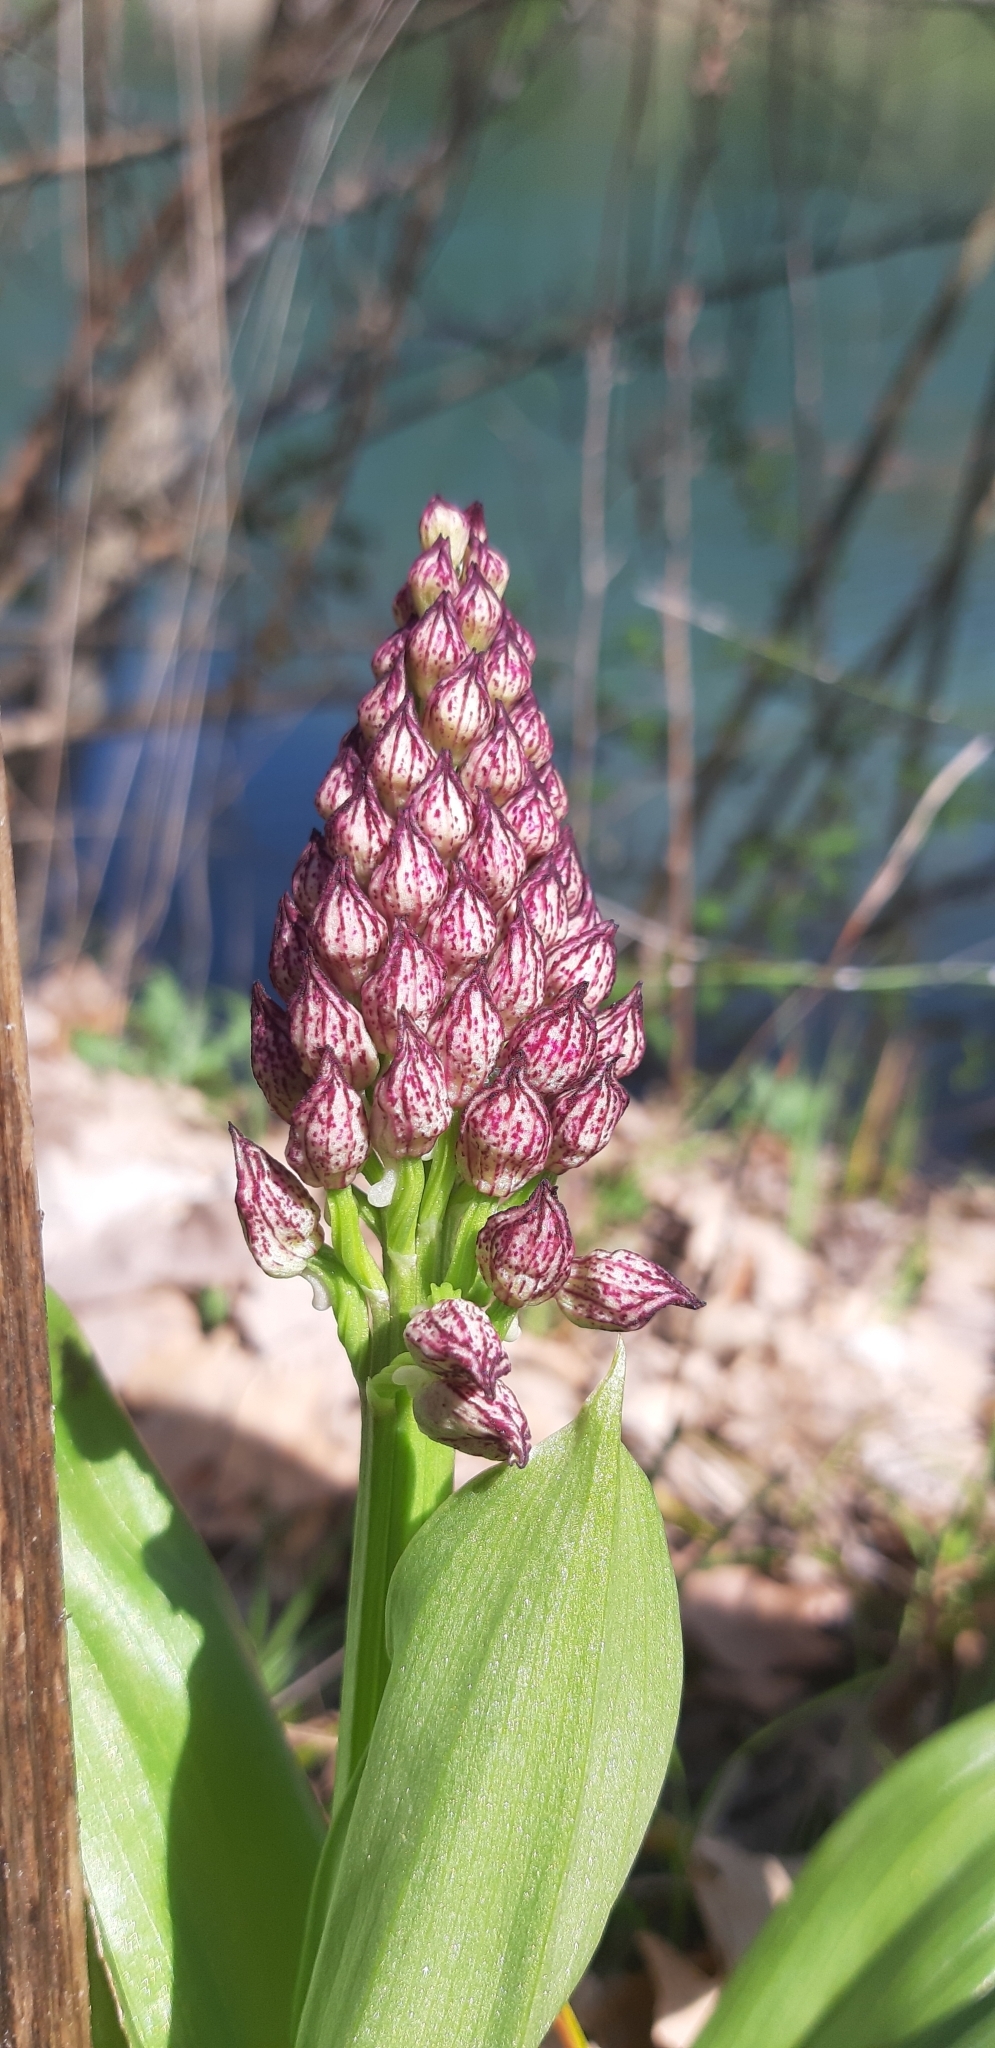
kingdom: Plantae
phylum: Tracheophyta
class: Liliopsida
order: Asparagales
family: Orchidaceae
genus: Orchis
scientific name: Orchis purpurea
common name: Lady orchid
